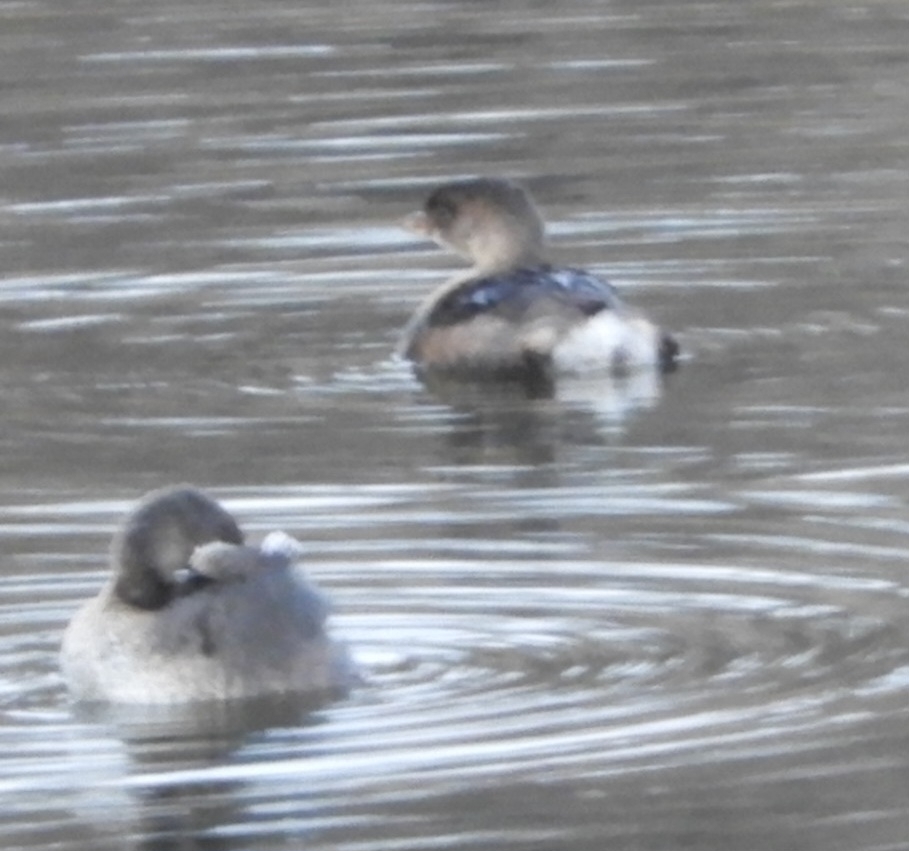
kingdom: Animalia
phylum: Chordata
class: Aves
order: Podicipediformes
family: Podicipedidae
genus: Podilymbus
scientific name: Podilymbus podiceps
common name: Pied-billed grebe
